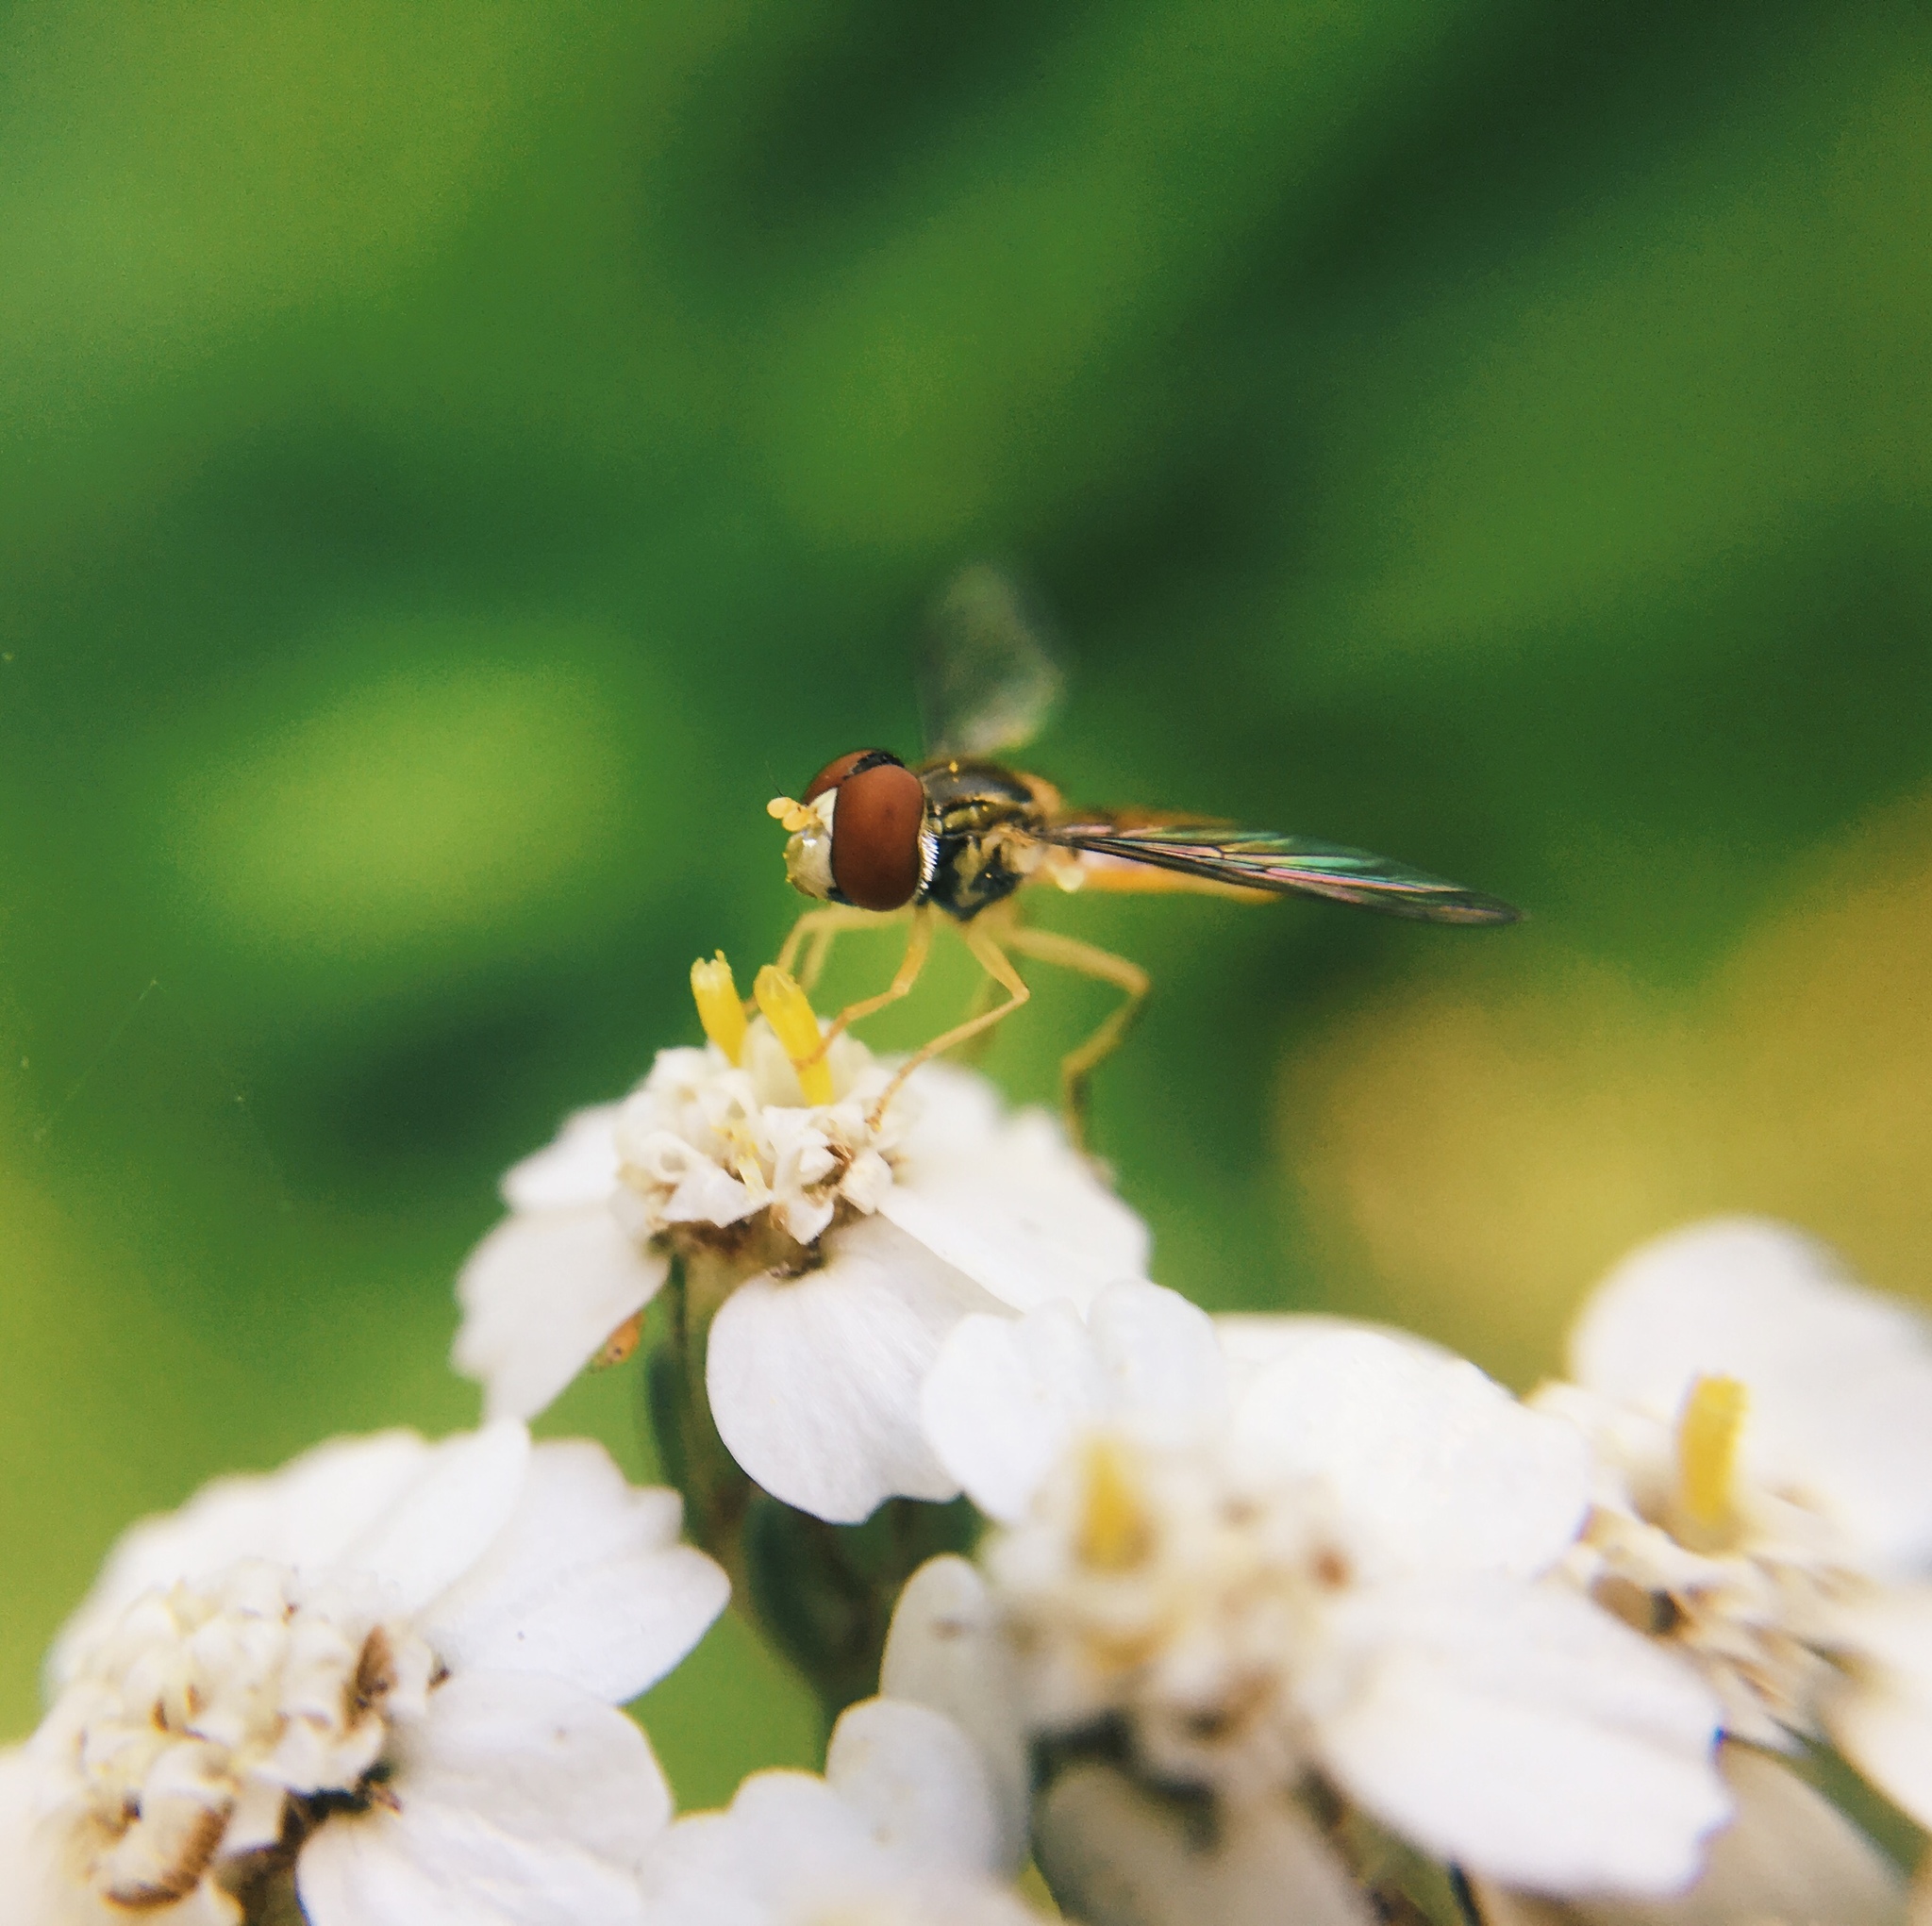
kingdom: Animalia
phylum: Arthropoda
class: Insecta
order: Diptera
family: Syrphidae
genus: Toxomerus
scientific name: Toxomerus marginatus
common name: Syrphid fly
